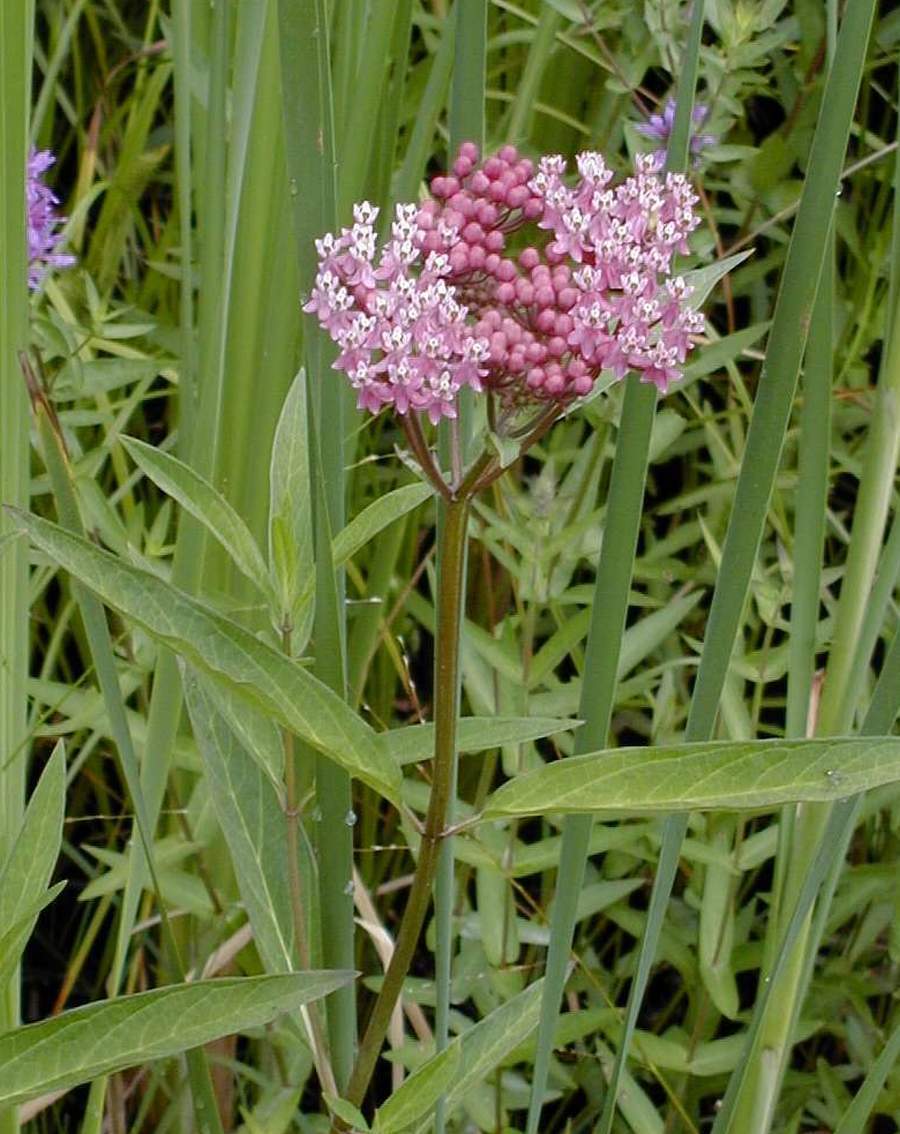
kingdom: Plantae
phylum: Tracheophyta
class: Magnoliopsida
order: Gentianales
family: Apocynaceae
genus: Asclepias
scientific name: Asclepias incarnata
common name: Swamp milkweed
